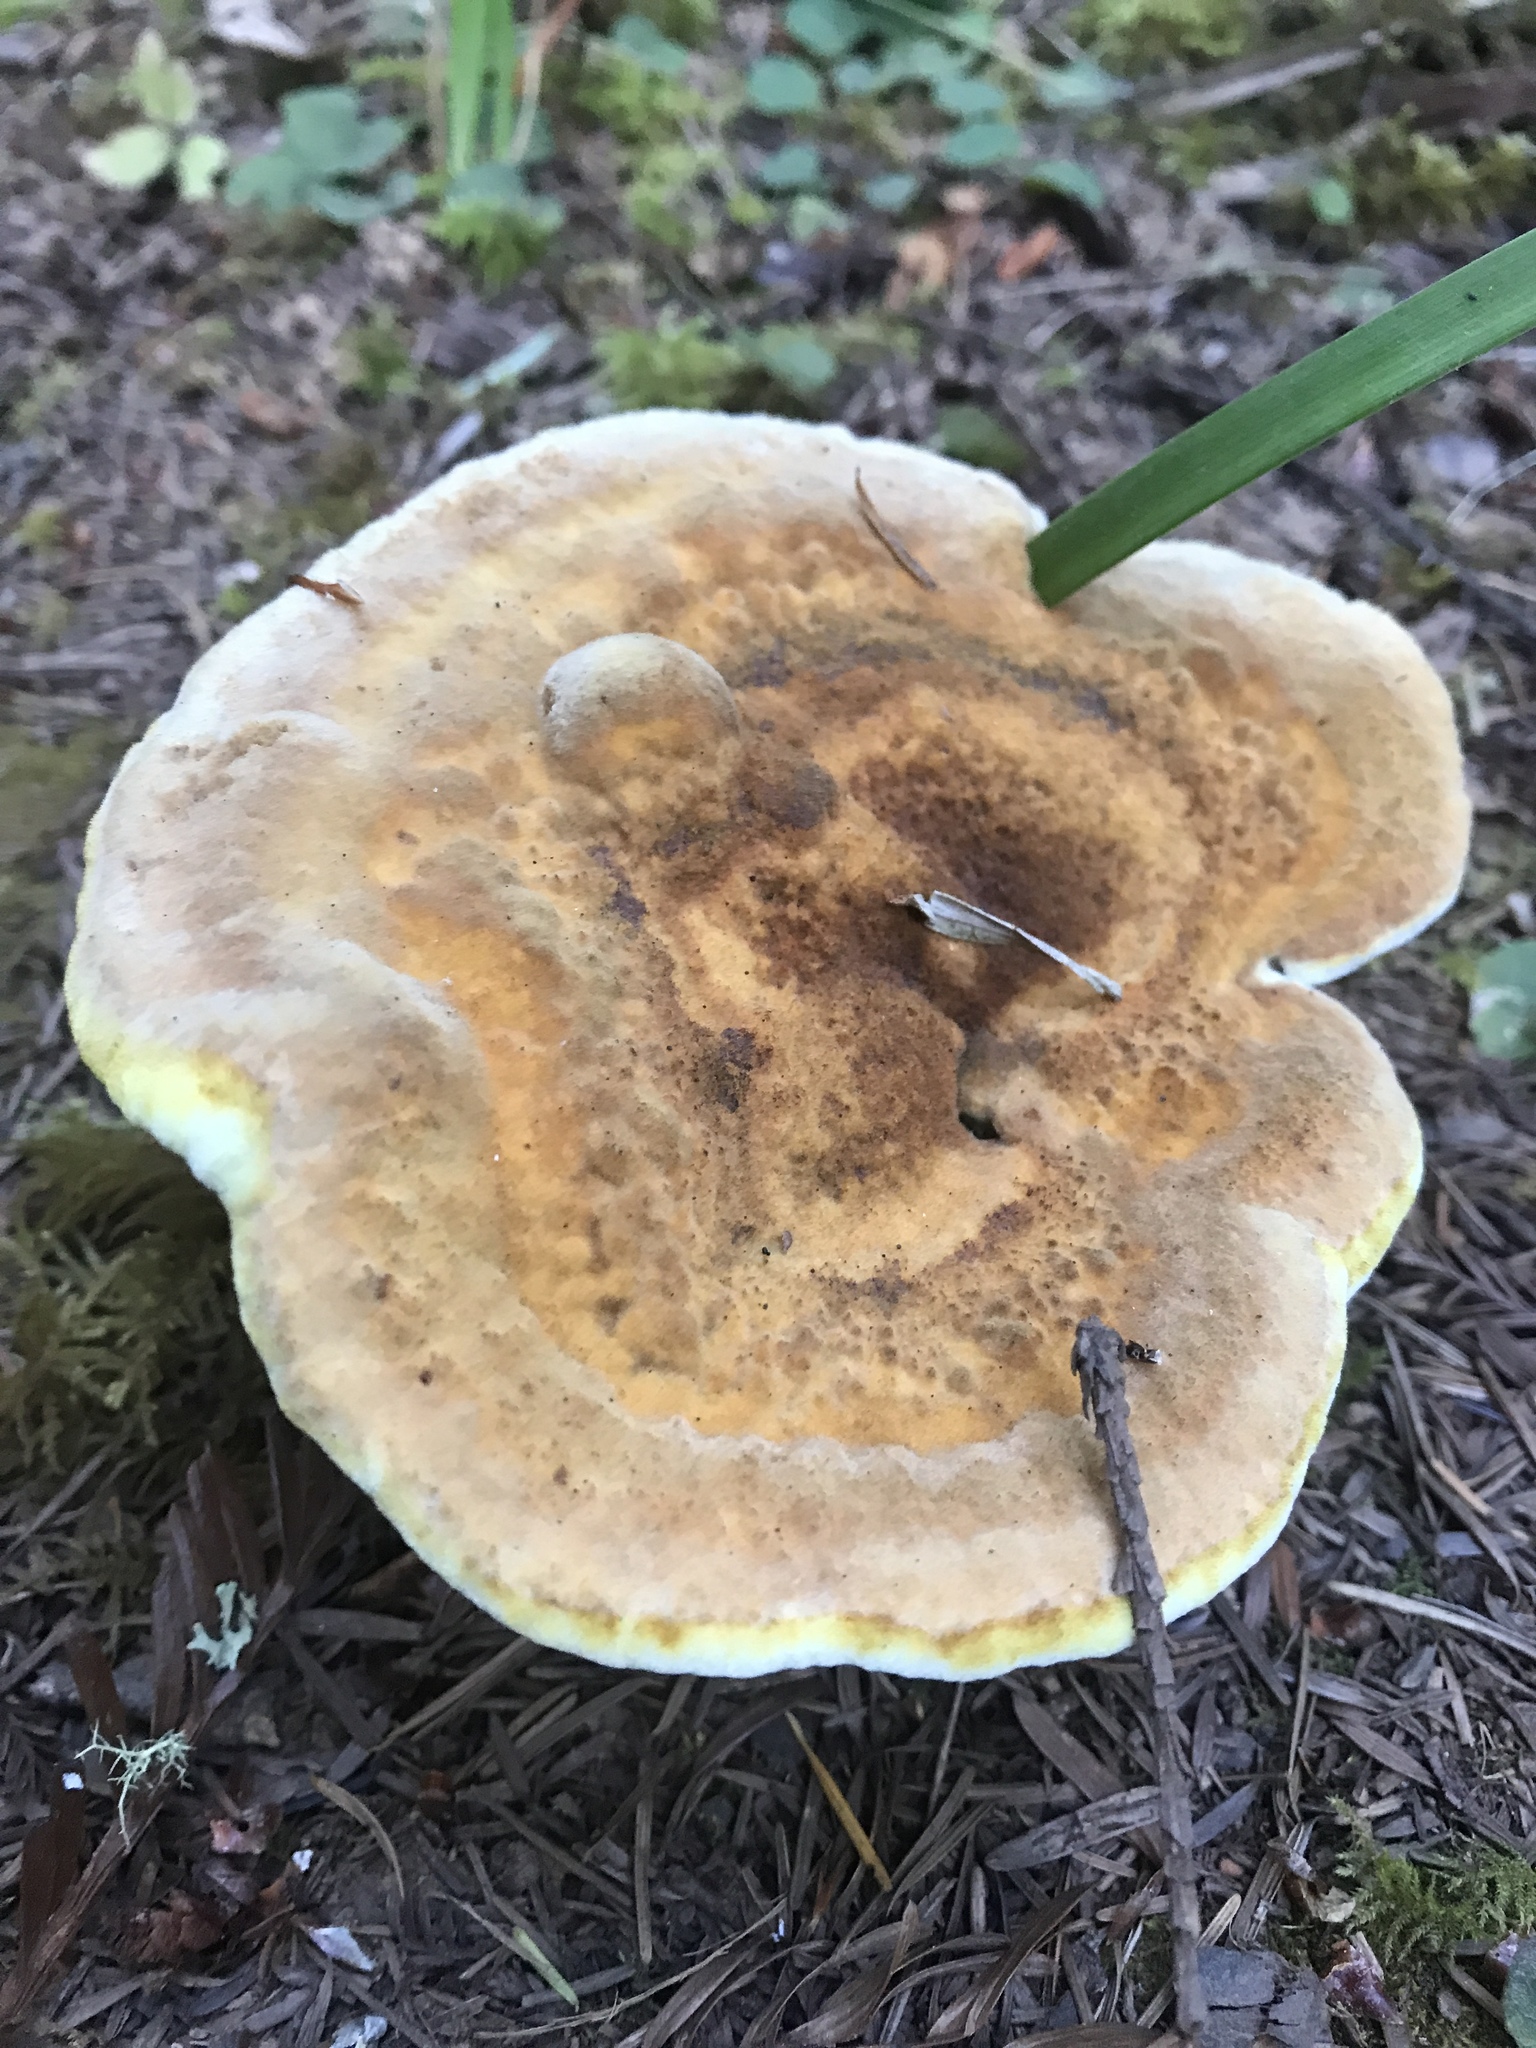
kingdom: Fungi
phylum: Basidiomycota
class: Agaricomycetes
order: Polyporales
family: Laetiporaceae
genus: Phaeolus
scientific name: Phaeolus schweinitzii
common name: Dyer's mazegill
